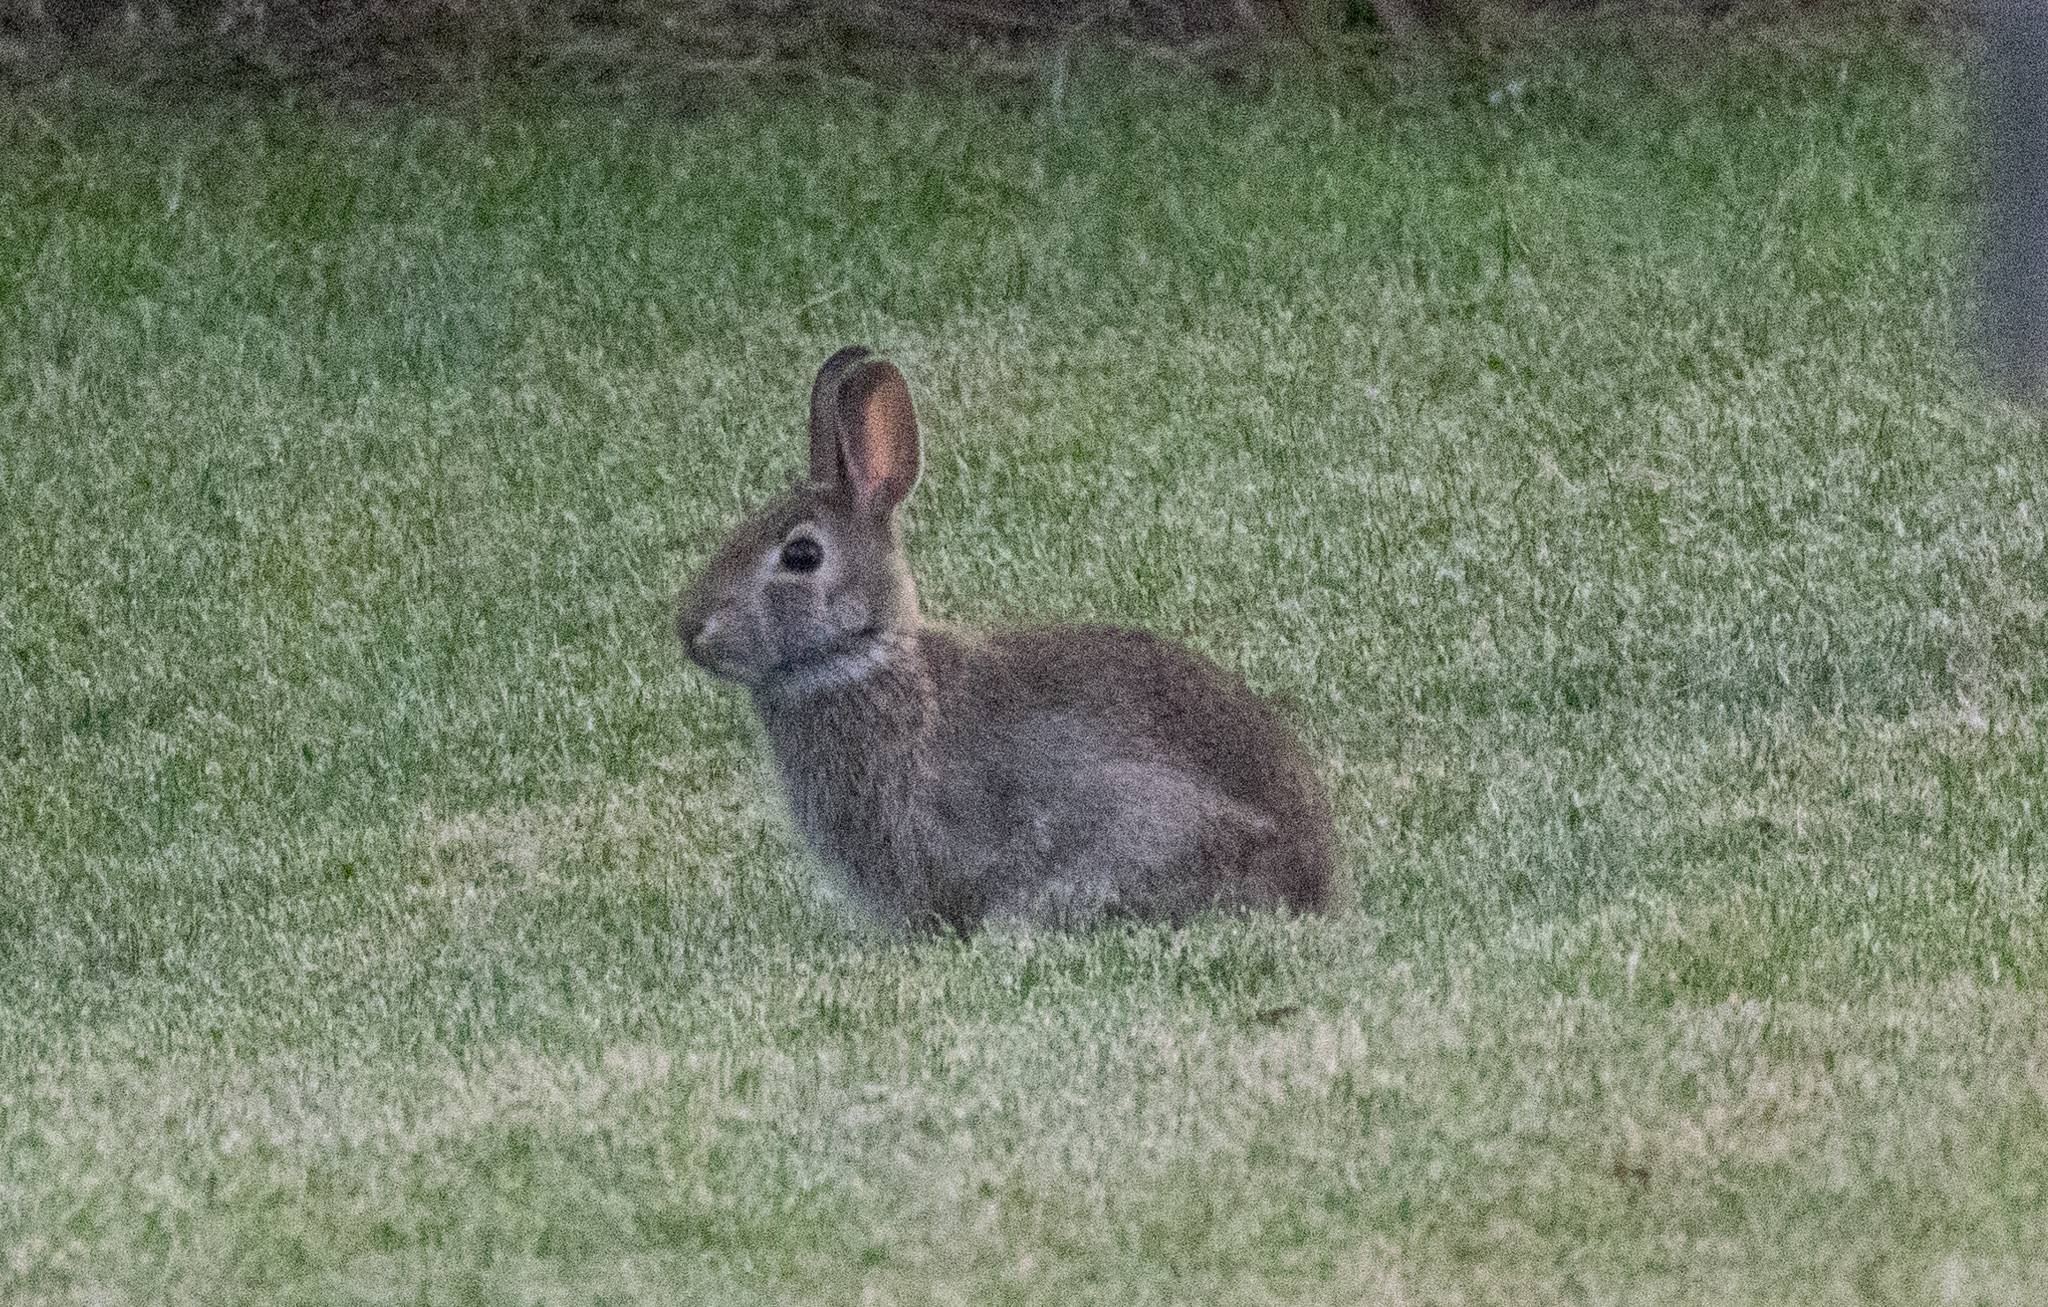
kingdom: Animalia
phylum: Chordata
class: Mammalia
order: Lagomorpha
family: Leporidae
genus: Sylvilagus
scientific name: Sylvilagus floridanus
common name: Eastern cottontail
